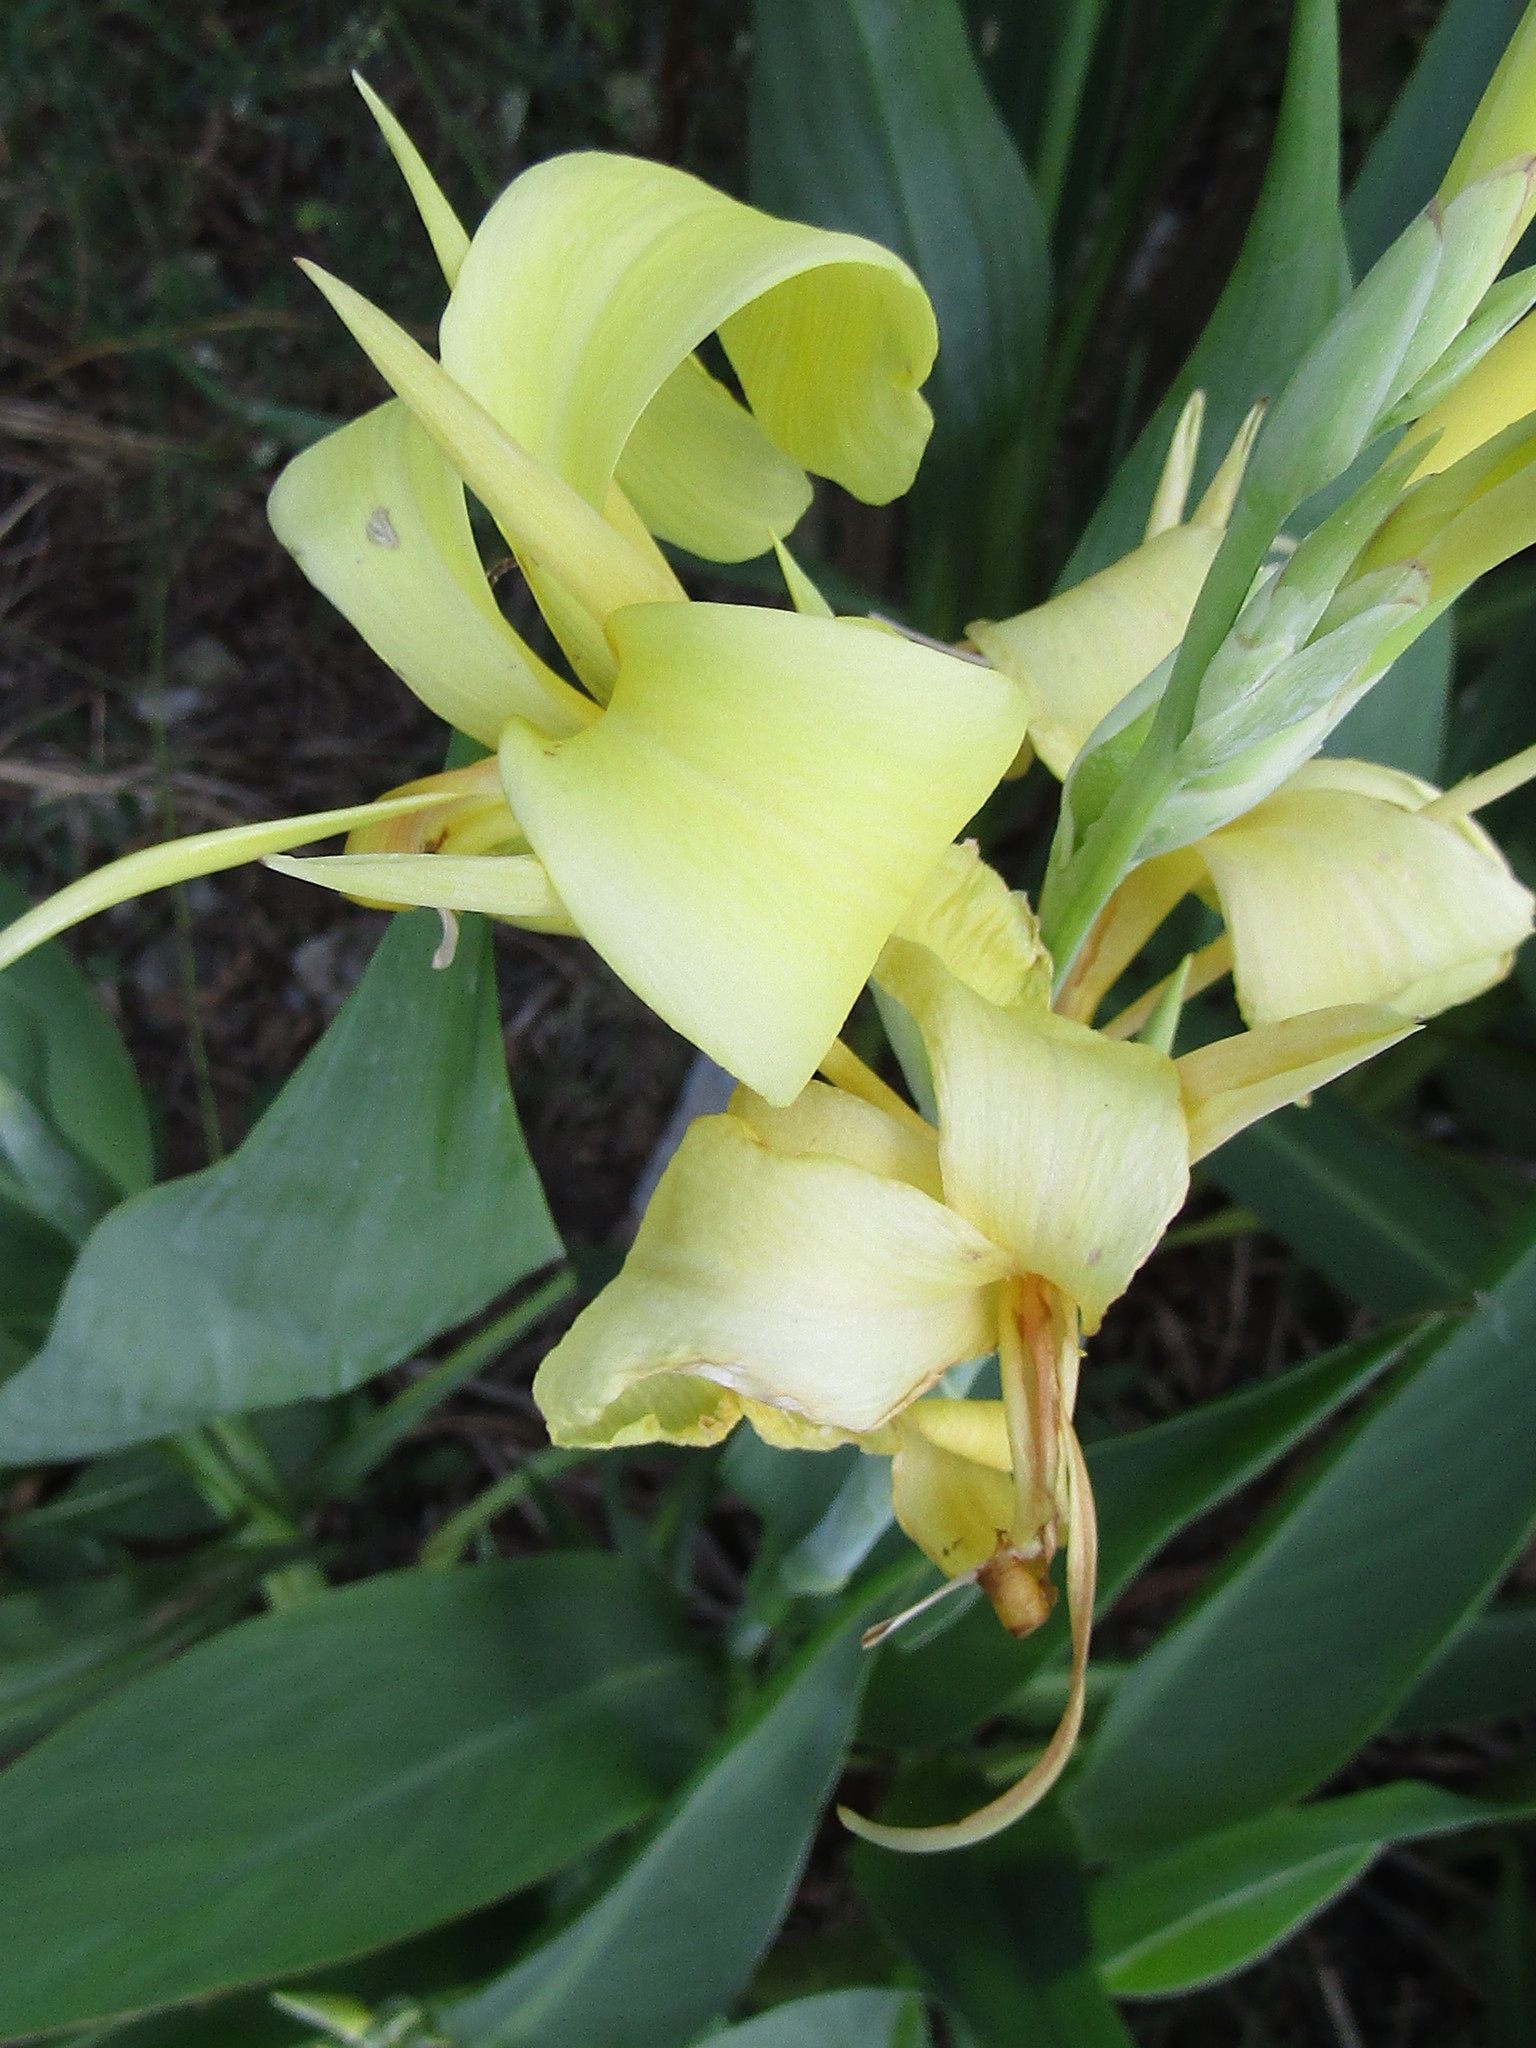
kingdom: Plantae
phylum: Tracheophyta
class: Liliopsida
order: Zingiberales
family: Cannaceae
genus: Canna
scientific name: Canna glauca
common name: Louisiana canna
